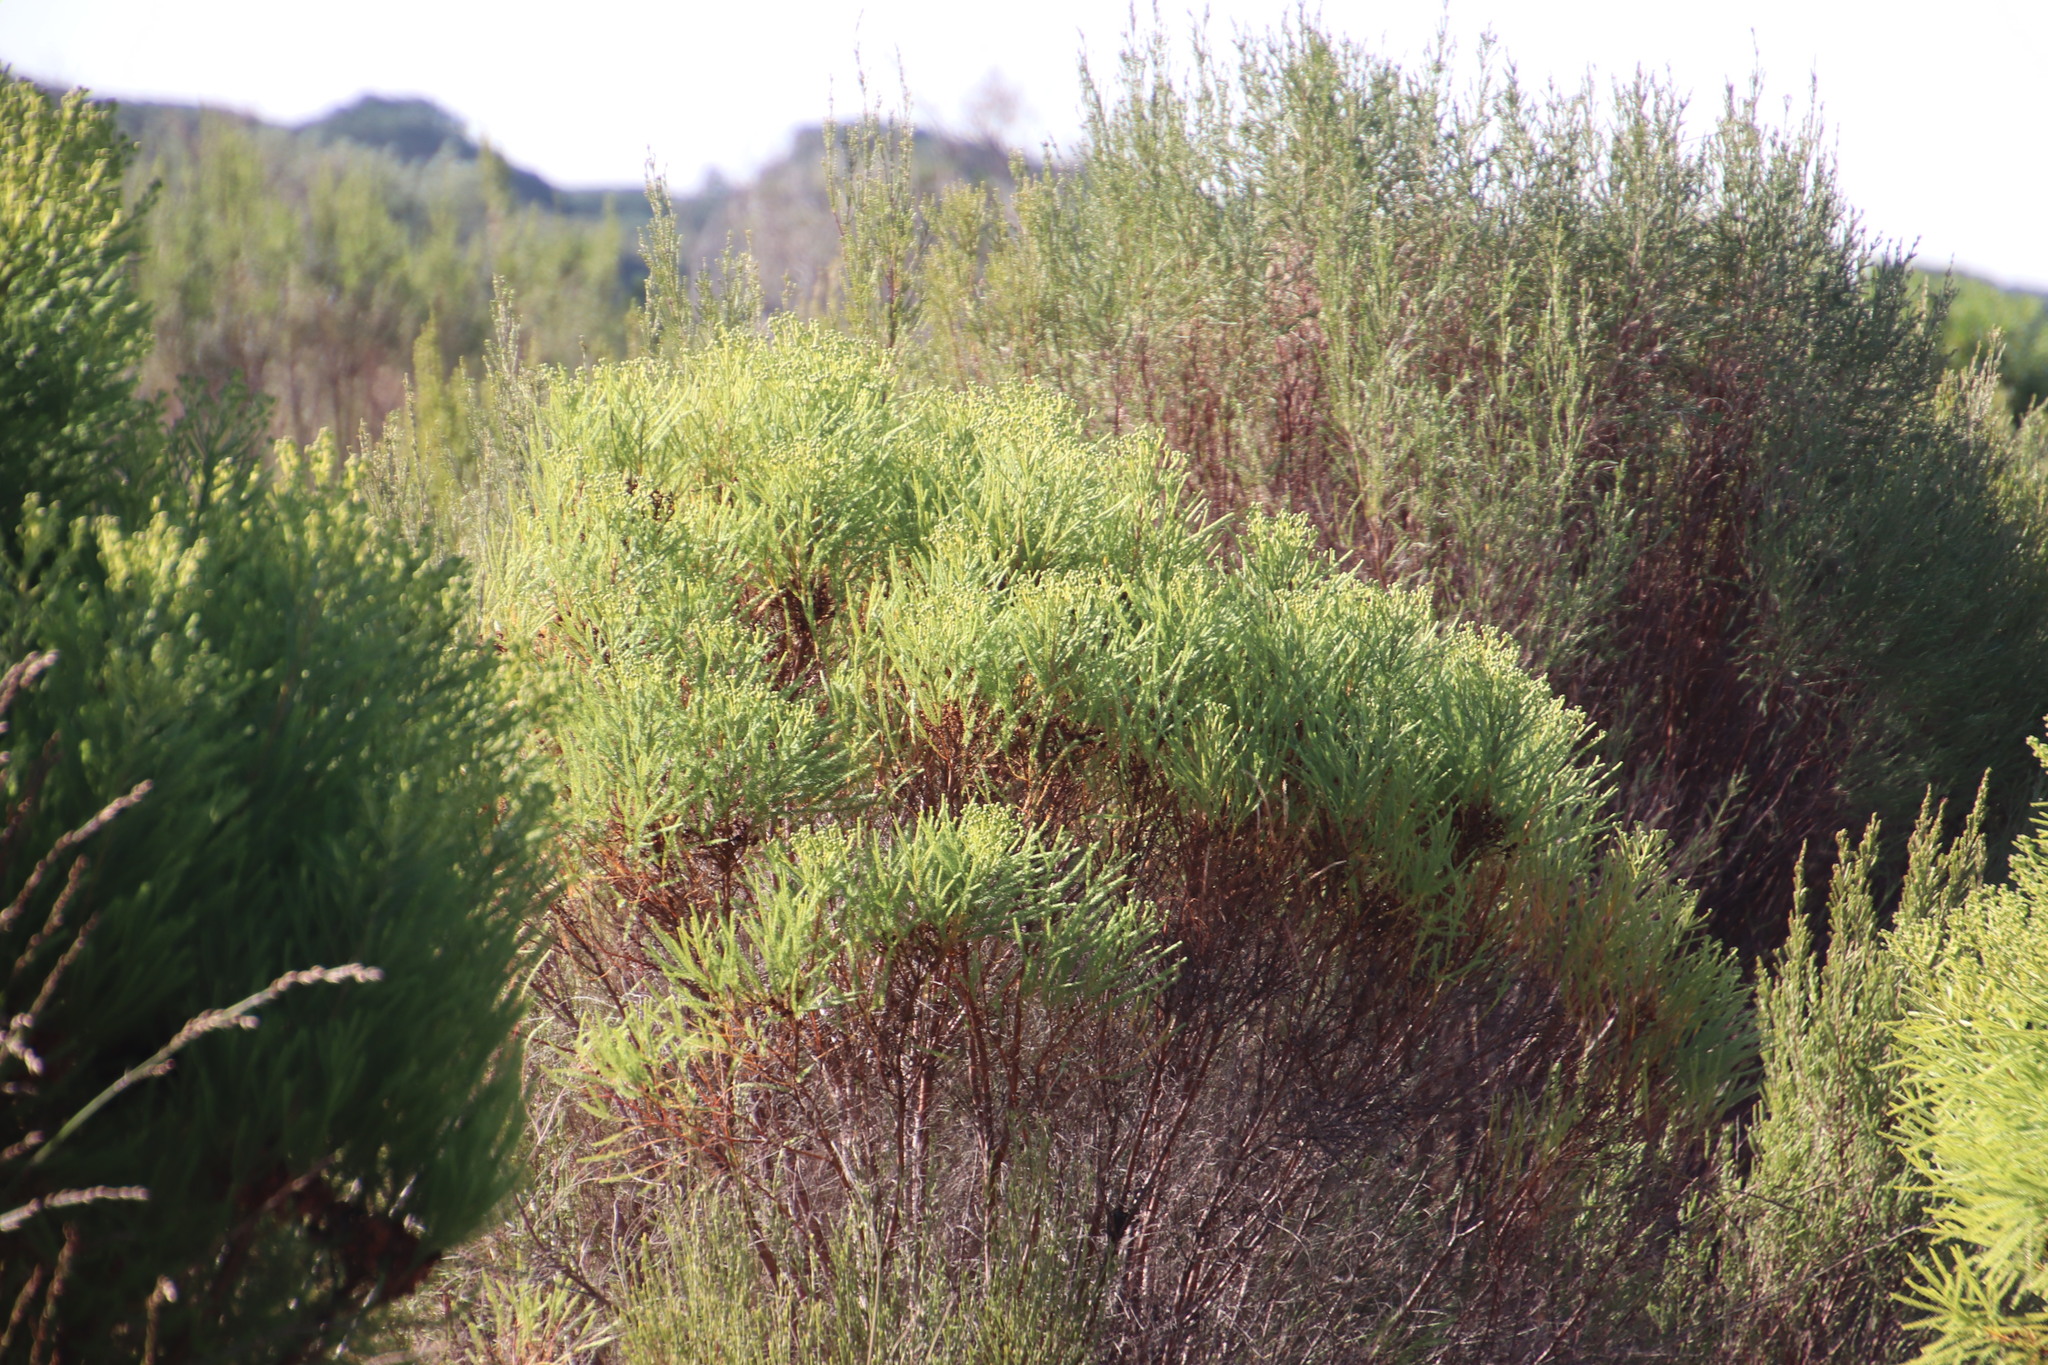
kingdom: Plantae
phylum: Tracheophyta
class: Magnoliopsida
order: Bruniales
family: Bruniaceae
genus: Berzelia
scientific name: Berzelia lanuginosa
